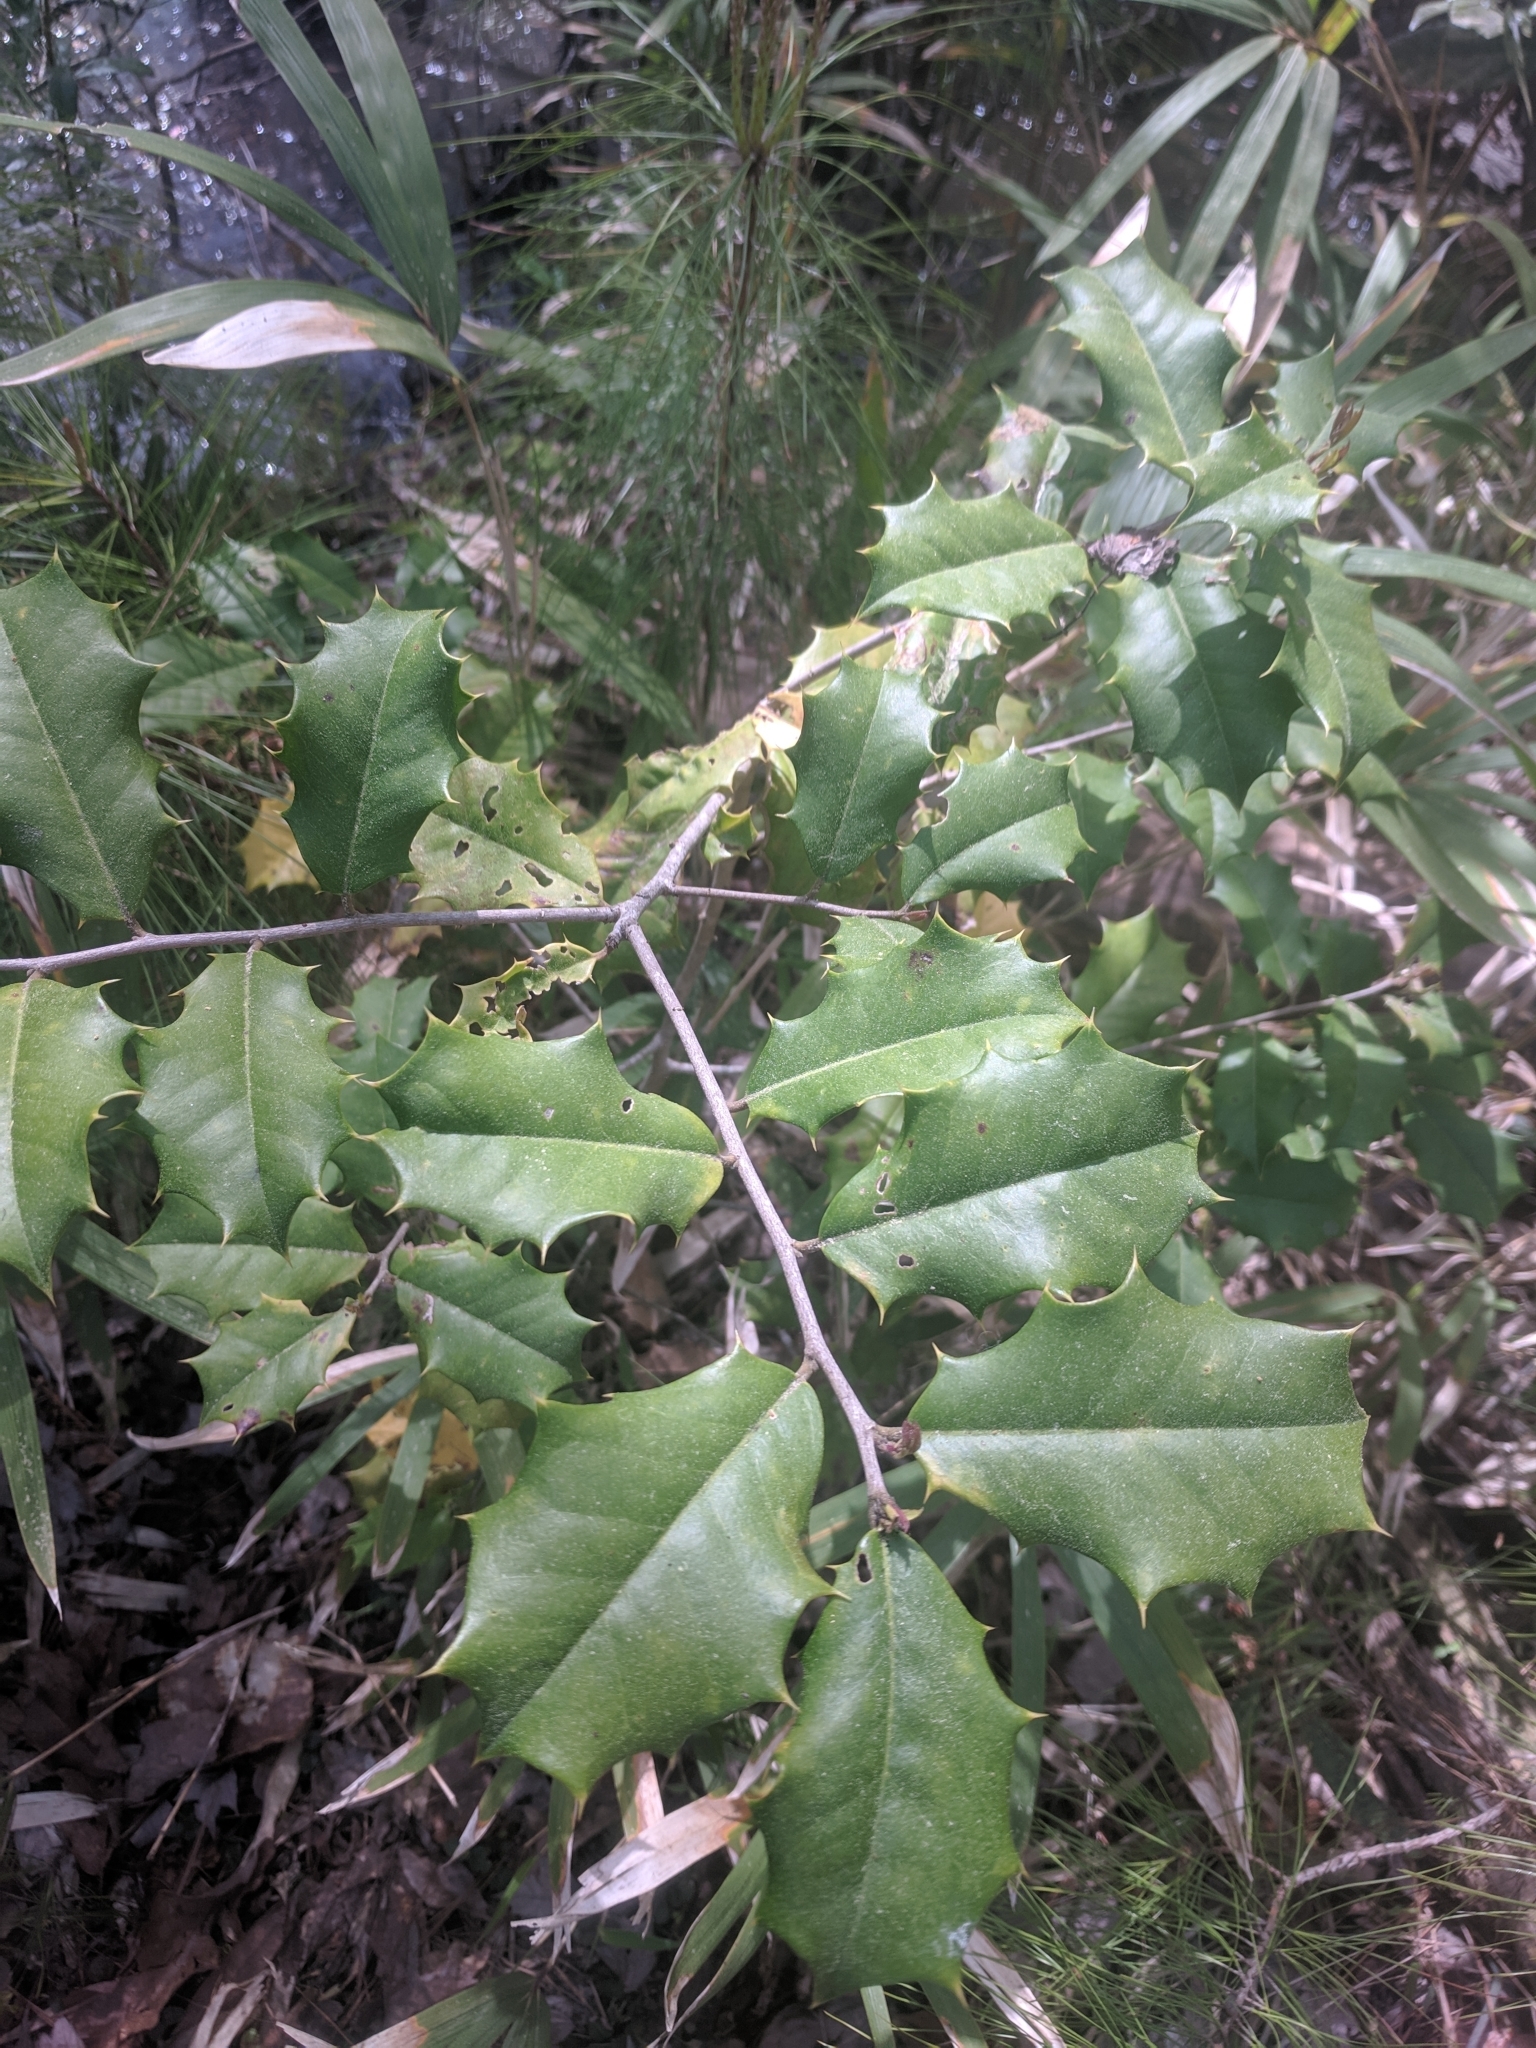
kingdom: Plantae
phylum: Tracheophyta
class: Magnoliopsida
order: Aquifoliales
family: Aquifoliaceae
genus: Ilex
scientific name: Ilex opaca
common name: American holly
